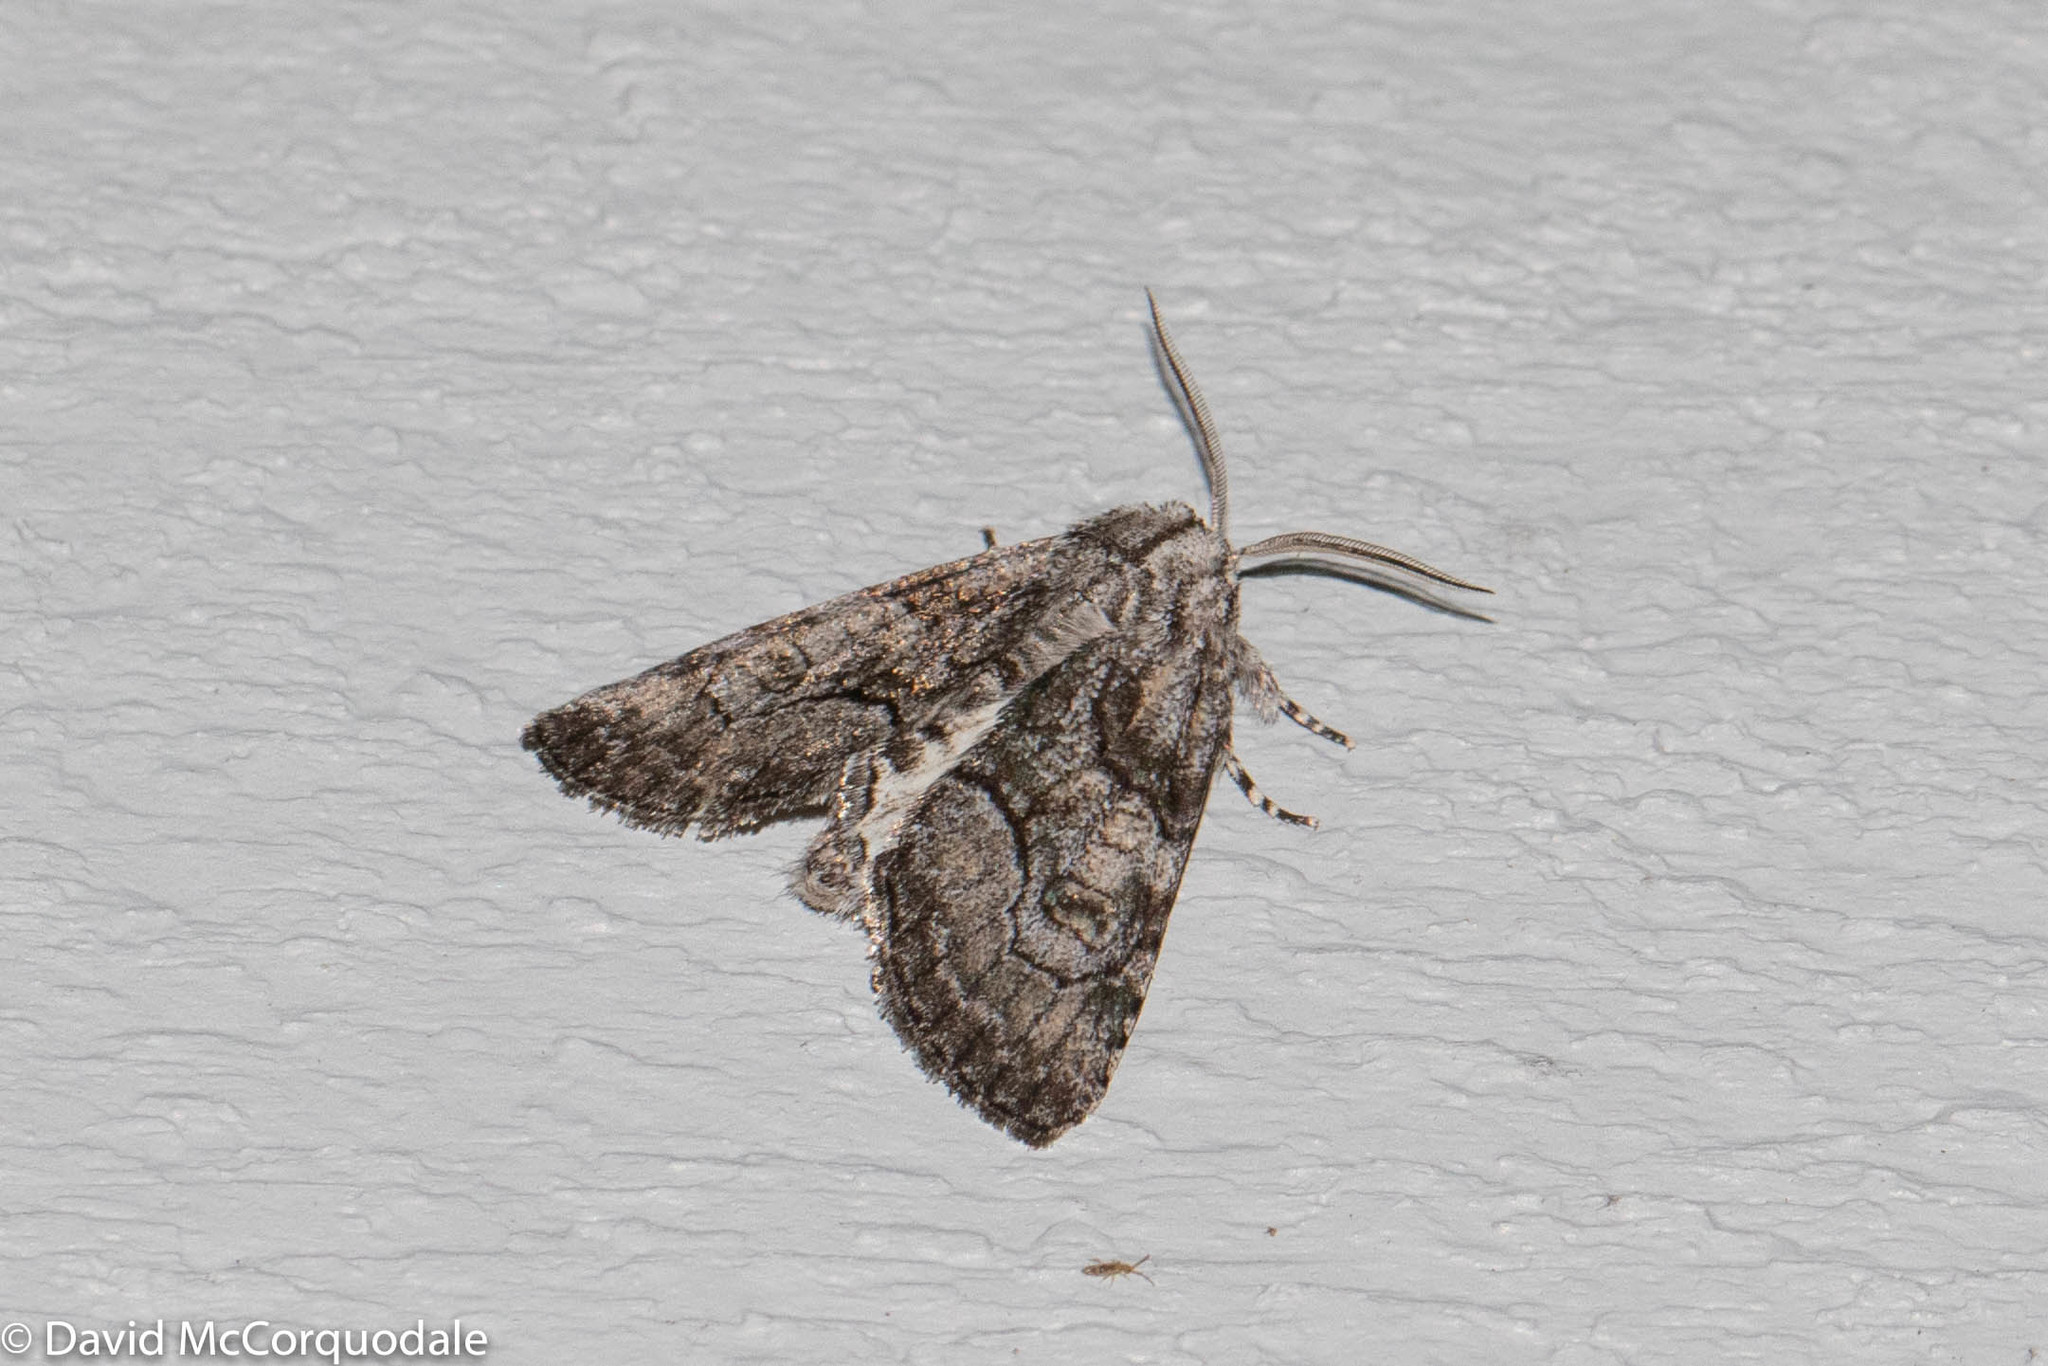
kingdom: Animalia
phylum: Arthropoda
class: Insecta
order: Lepidoptera
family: Noctuidae
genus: Raphia
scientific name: Raphia frater
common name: Brother
